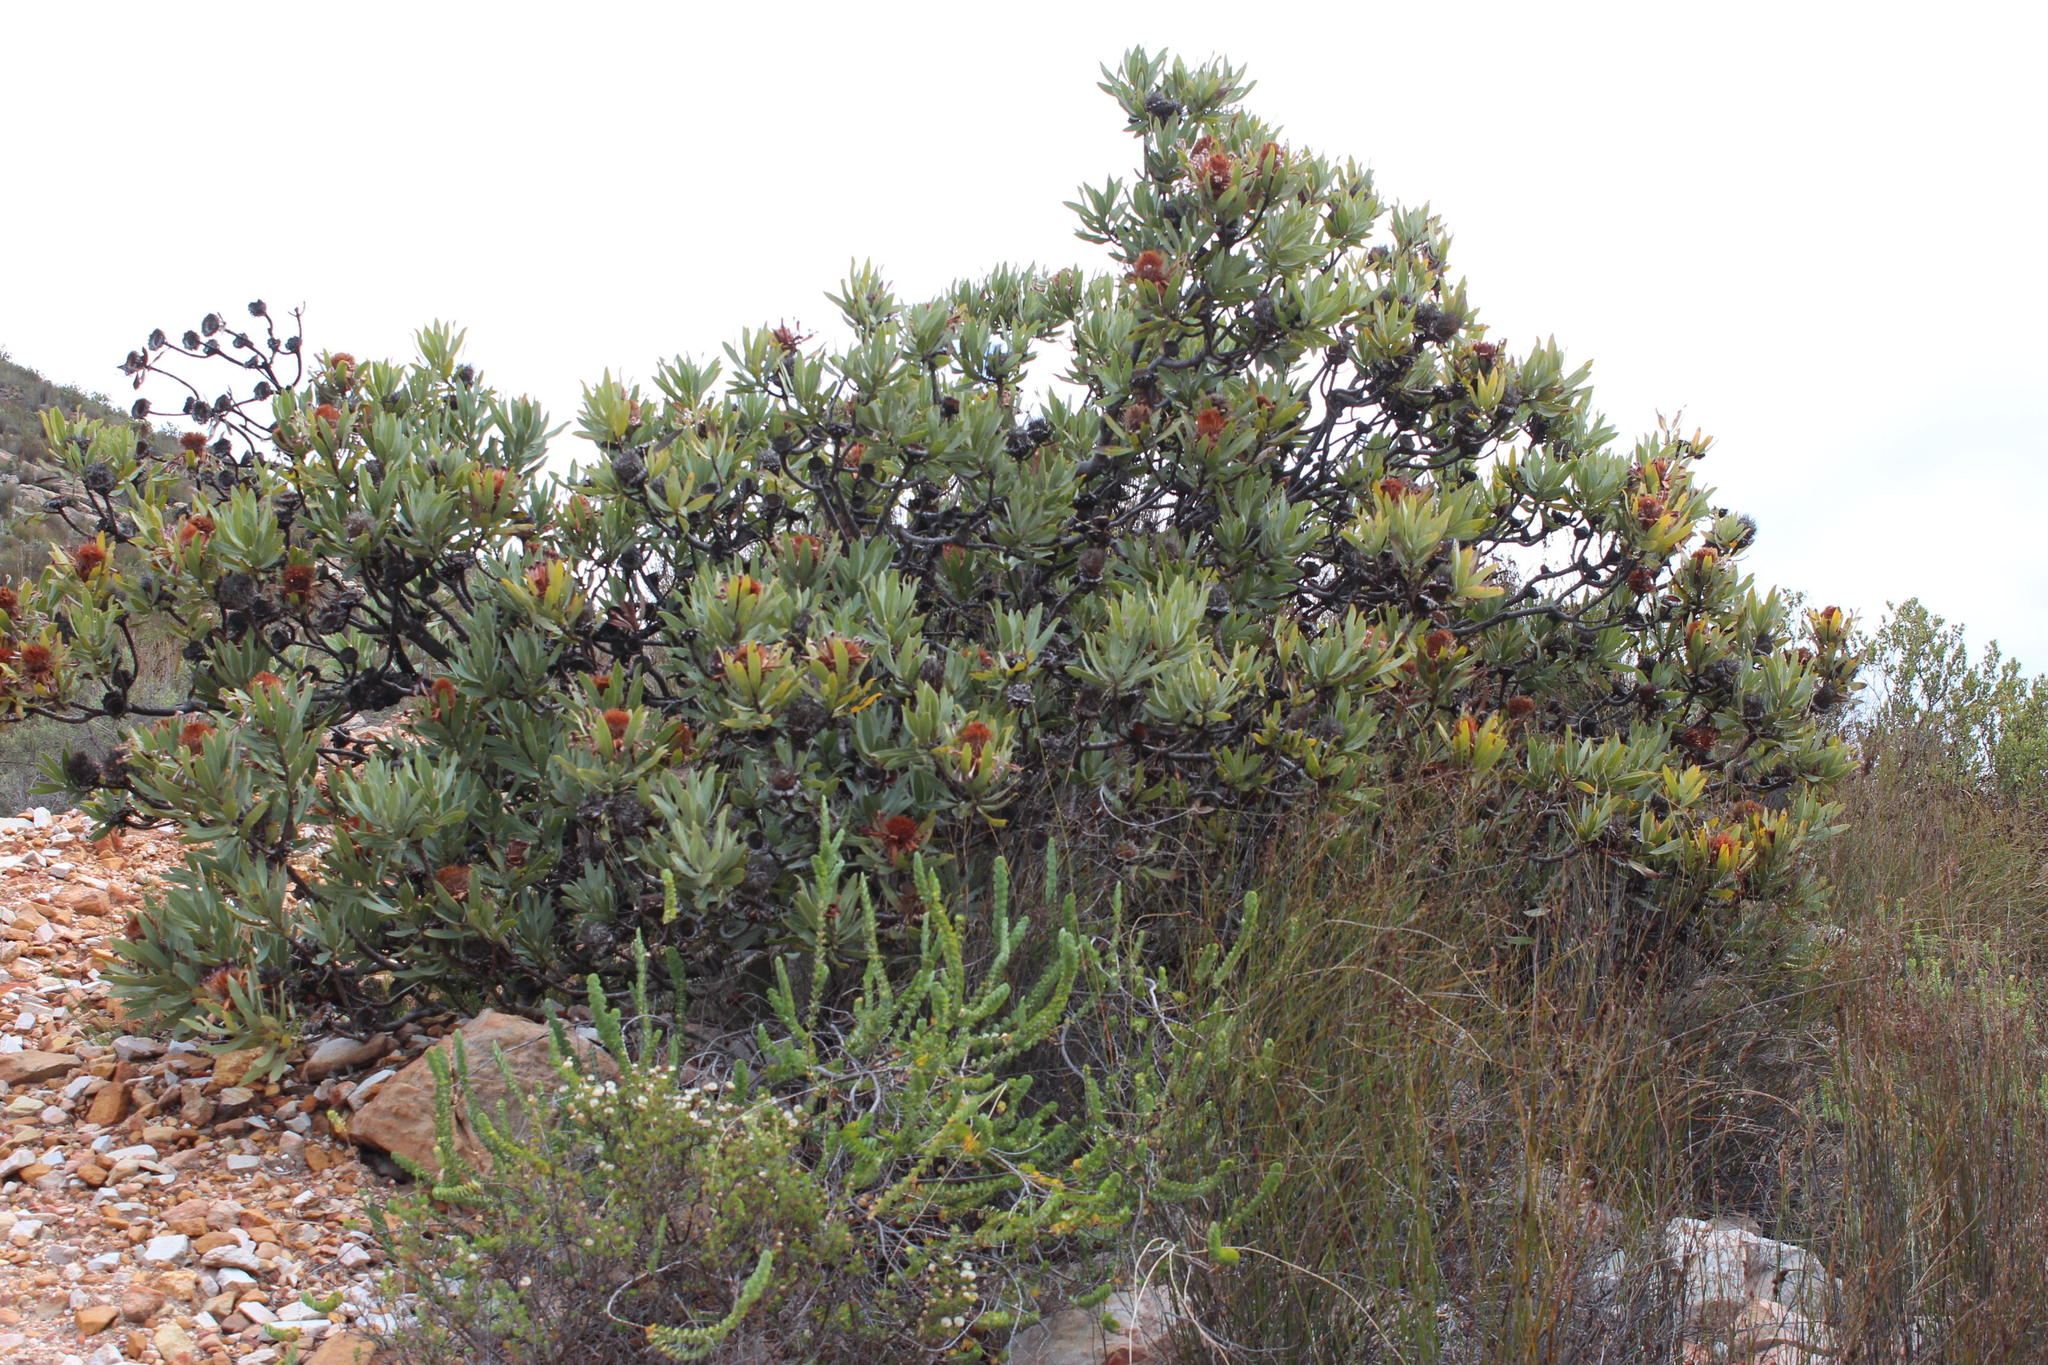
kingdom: Plantae
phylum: Tracheophyta
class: Magnoliopsida
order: Proteales
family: Proteaceae
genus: Protea
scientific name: Protea laurifolia
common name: Grey-leaf sugarbsh
